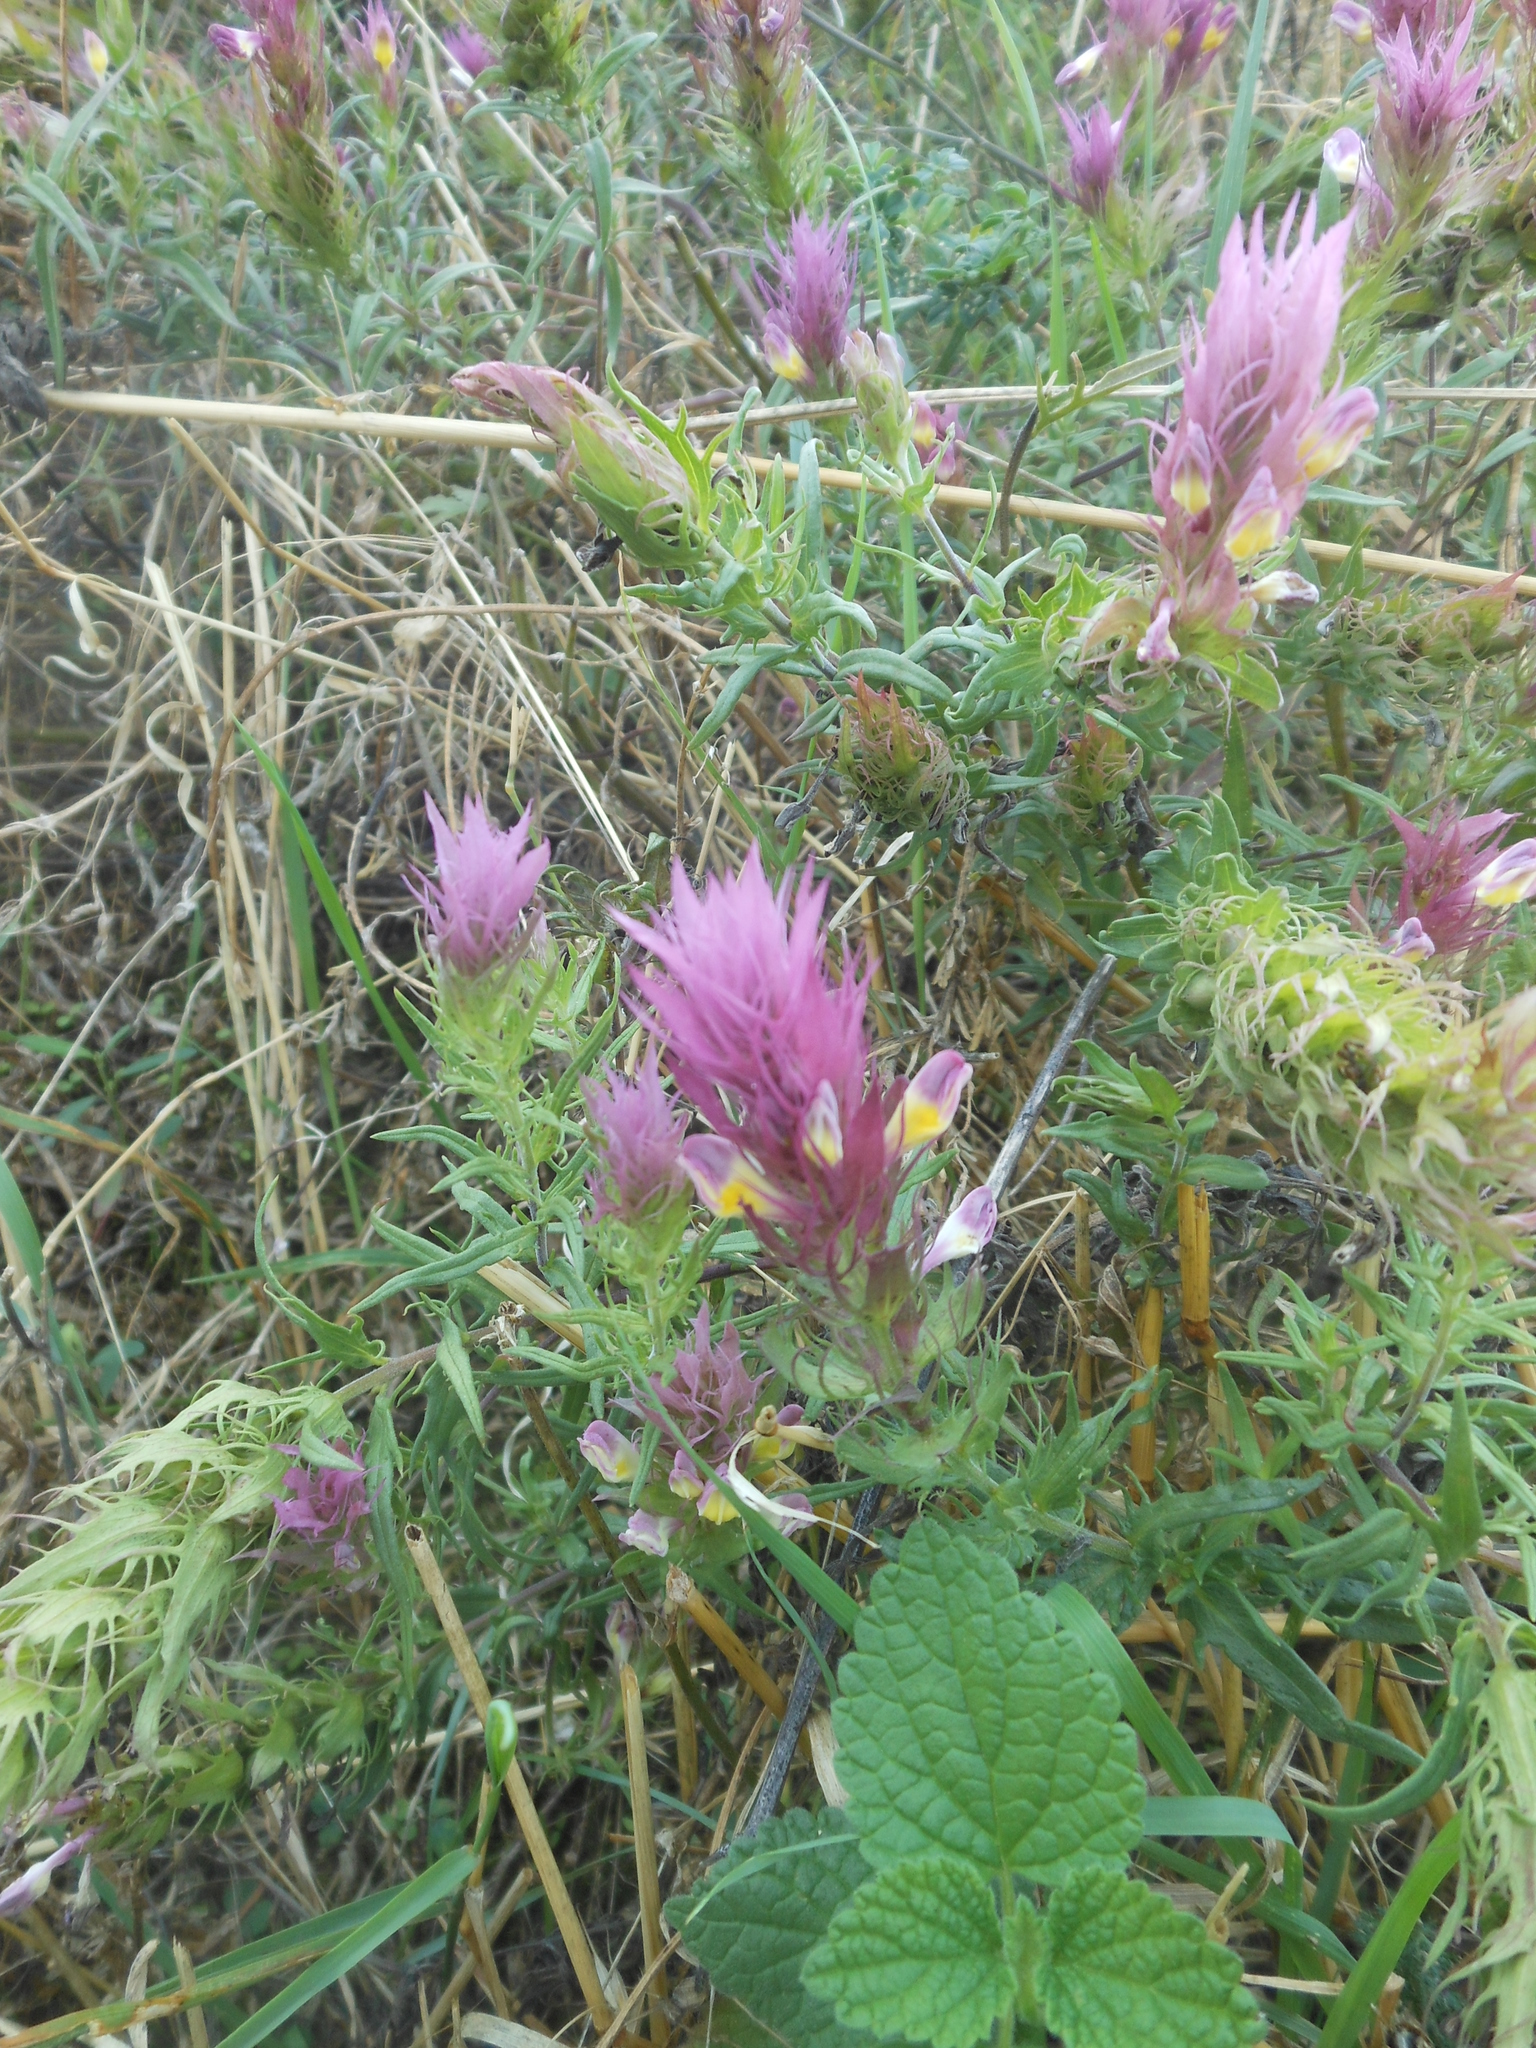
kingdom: Plantae
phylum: Tracheophyta
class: Magnoliopsida
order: Lamiales
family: Orobanchaceae
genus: Melampyrum
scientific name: Melampyrum arvense
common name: Field cow-wheat
